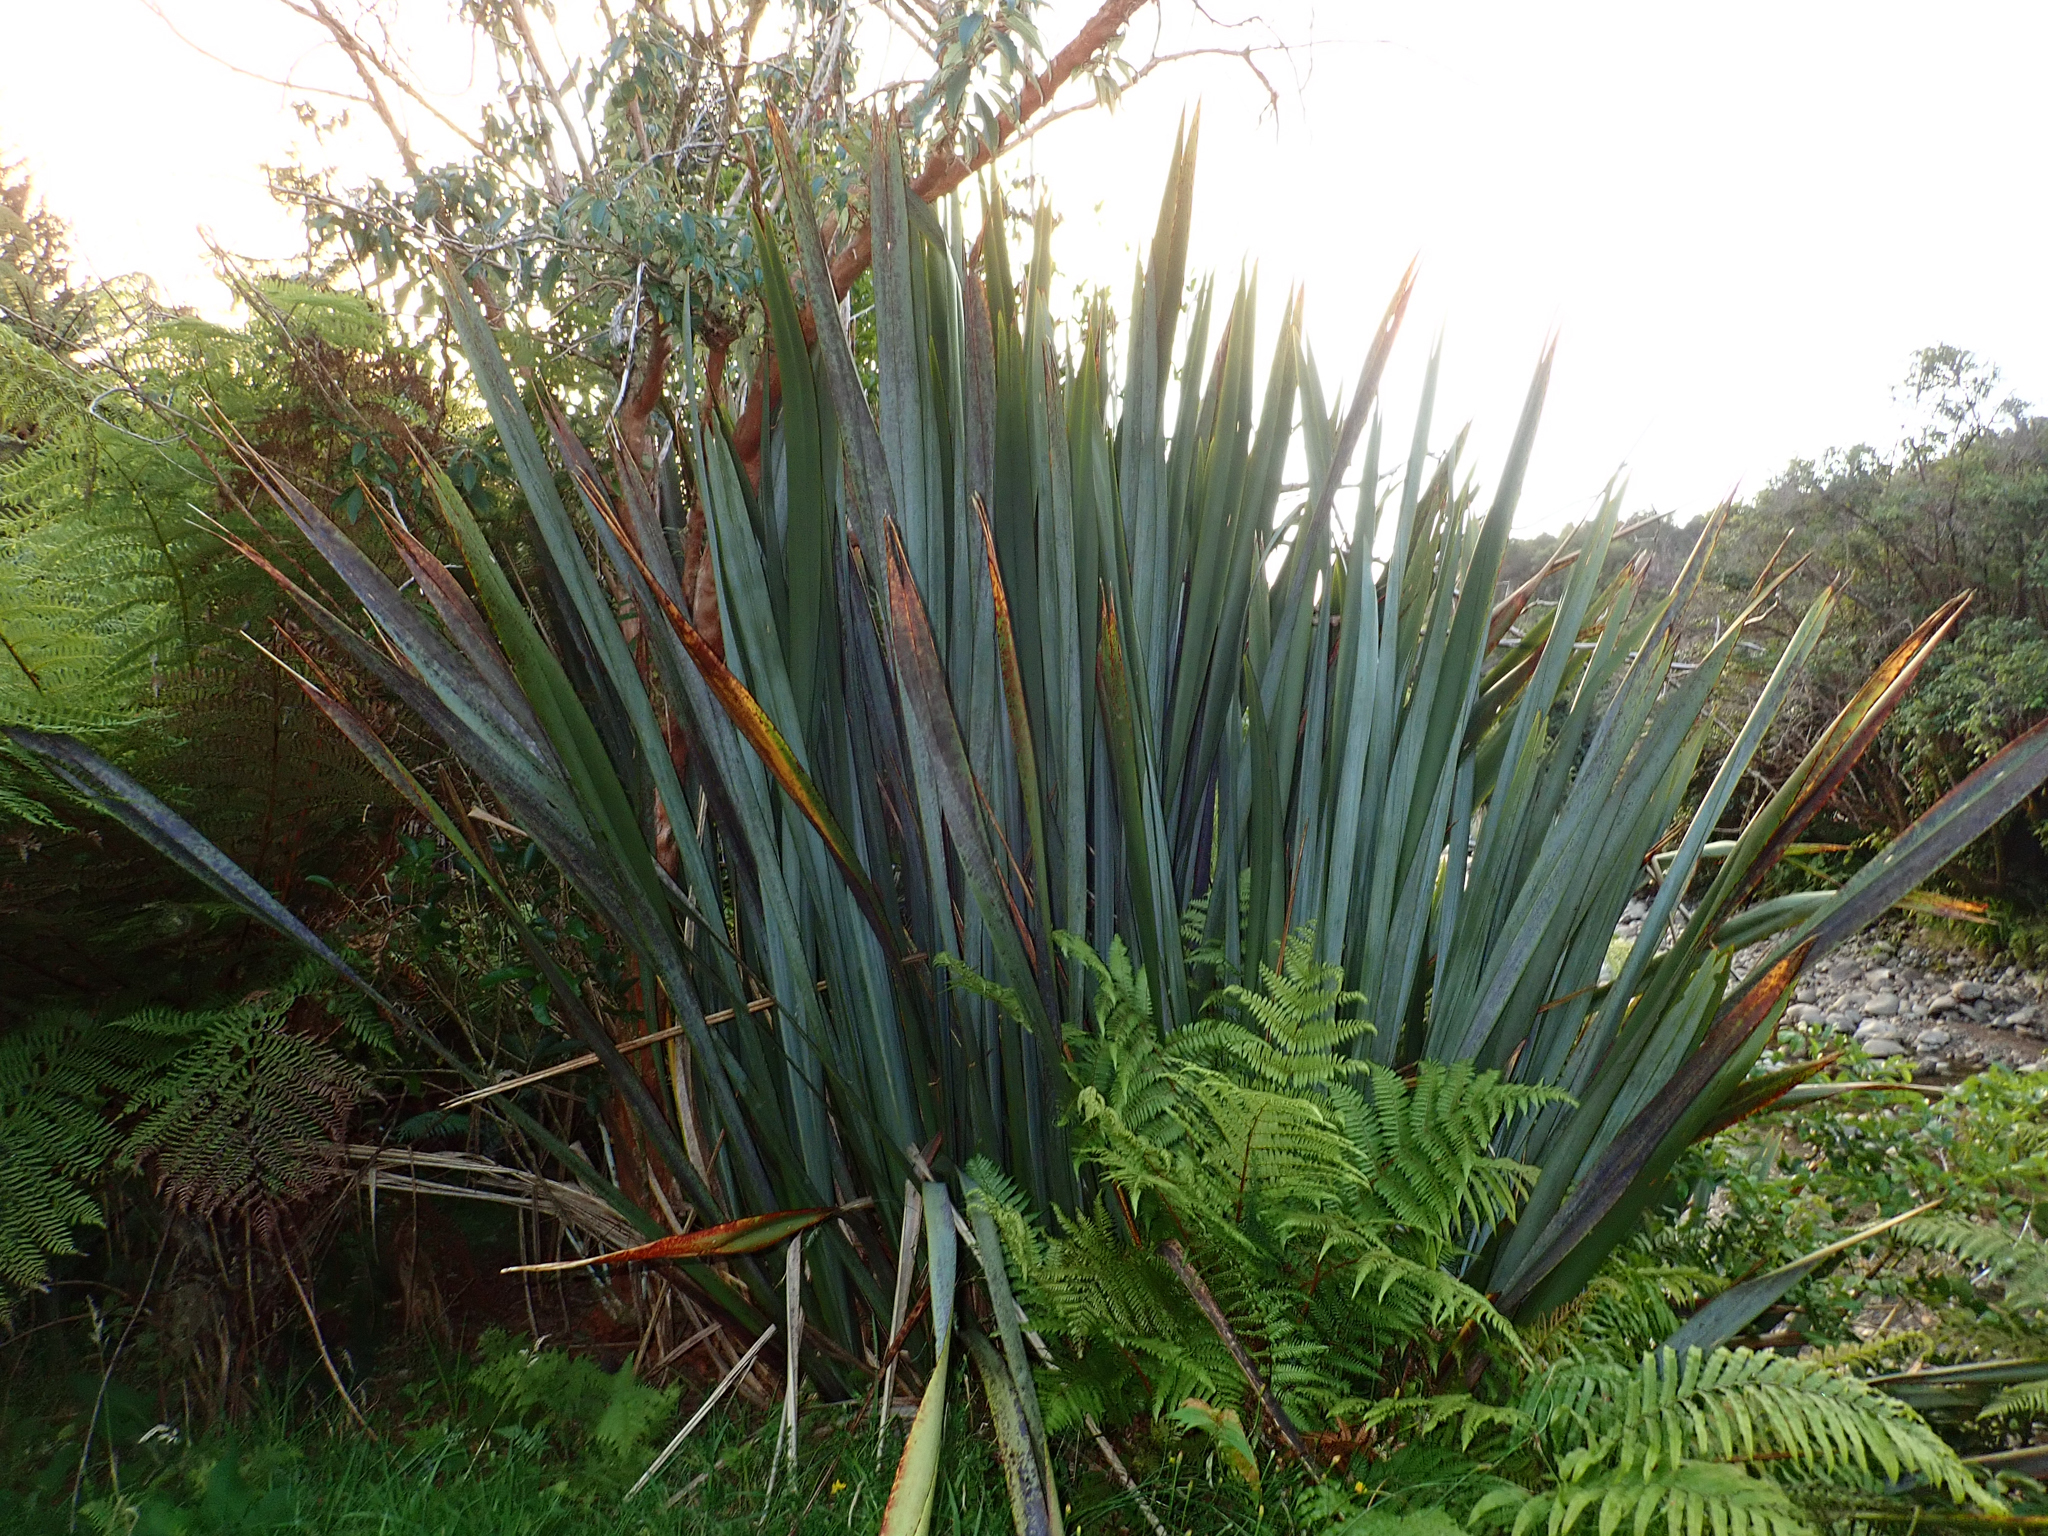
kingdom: Plantae
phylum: Tracheophyta
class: Liliopsida
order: Asparagales
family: Asphodelaceae
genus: Phormium
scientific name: Phormium tenax
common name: New zealand flax
